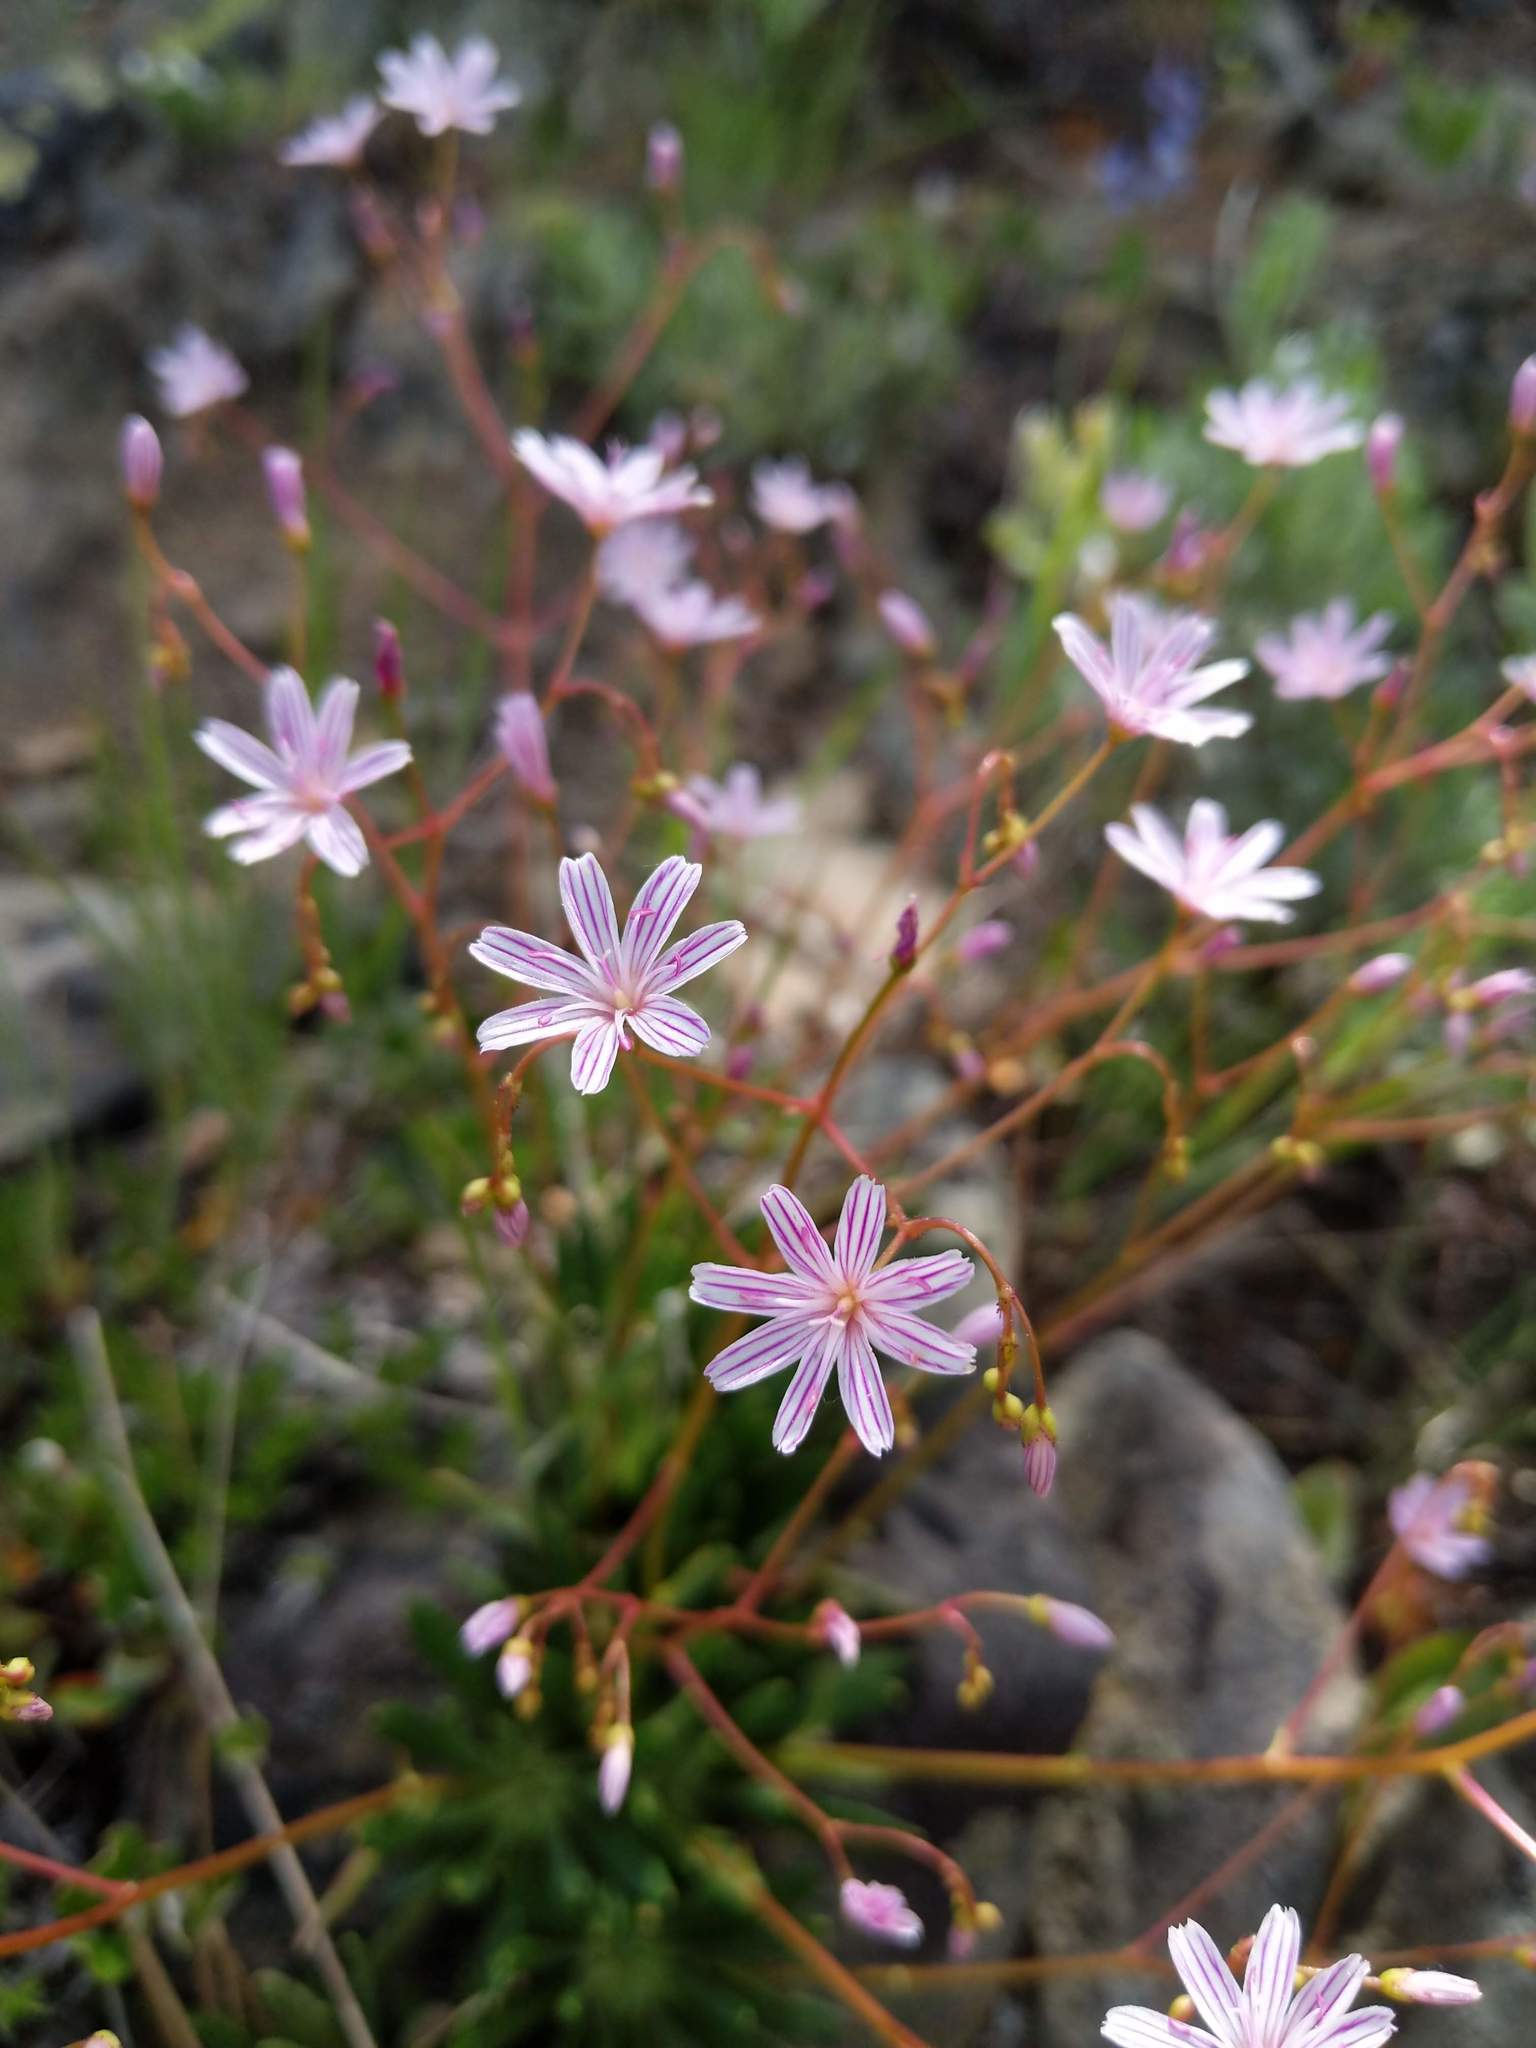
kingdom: Plantae
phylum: Tracheophyta
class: Magnoliopsida
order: Caryophyllales
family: Montiaceae
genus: Lewisia
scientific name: Lewisia columbiana
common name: Columbia lewisia
